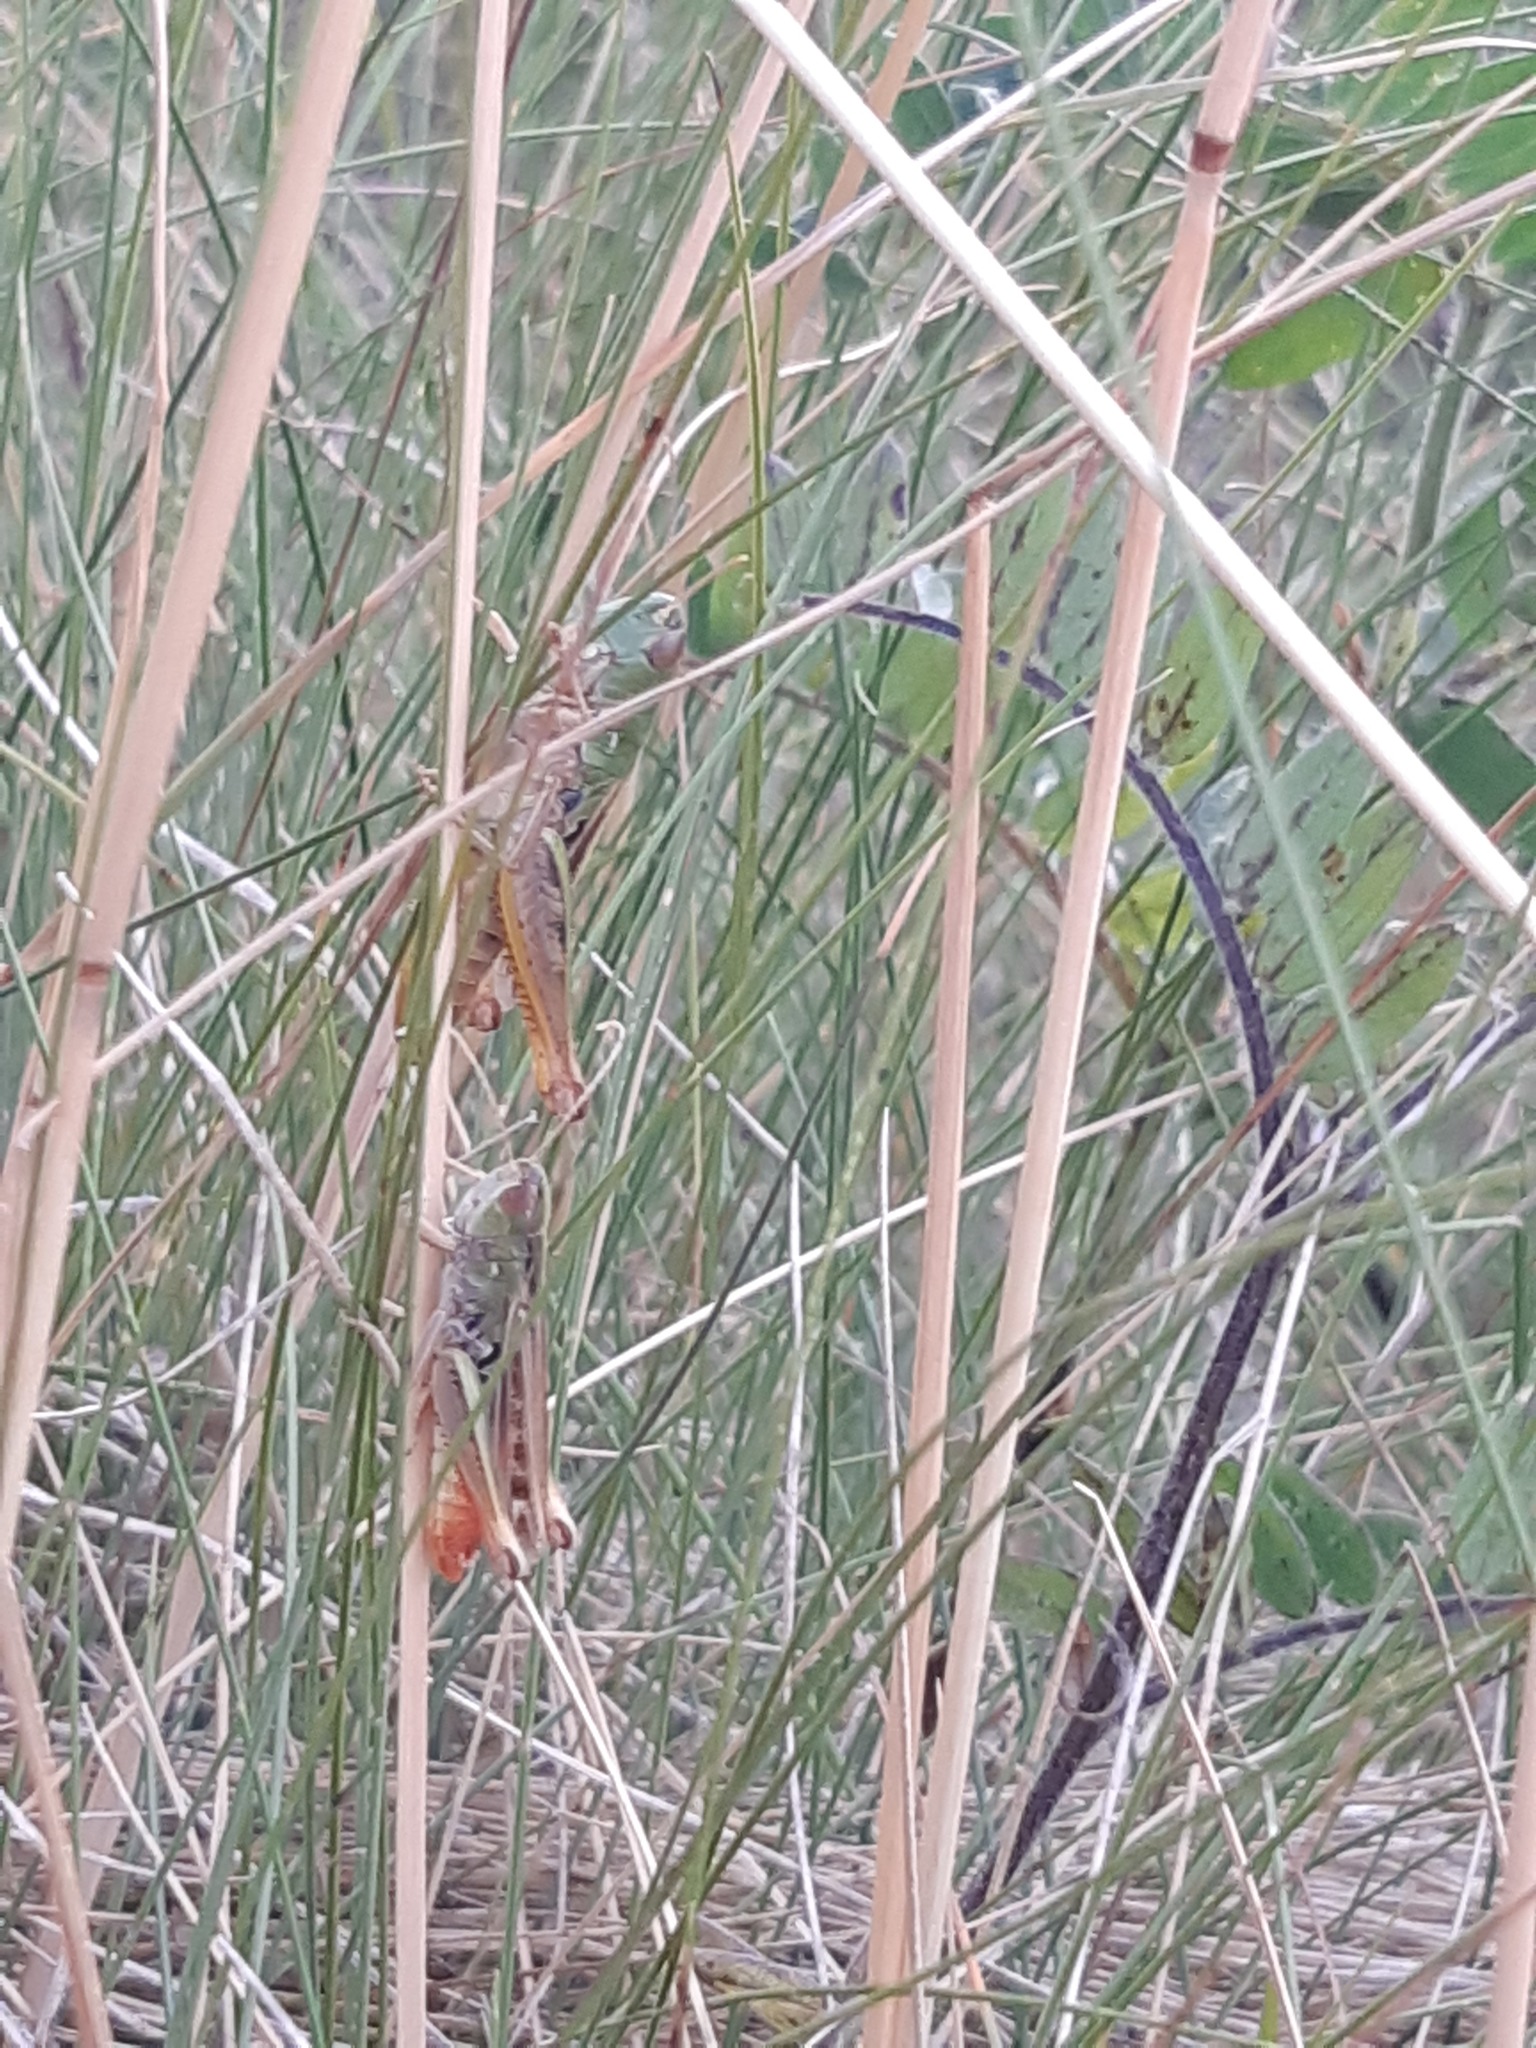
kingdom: Animalia
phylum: Arthropoda
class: Insecta
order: Orthoptera
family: Acrididae
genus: Stenobothrus
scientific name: Stenobothrus nigromaculatus
